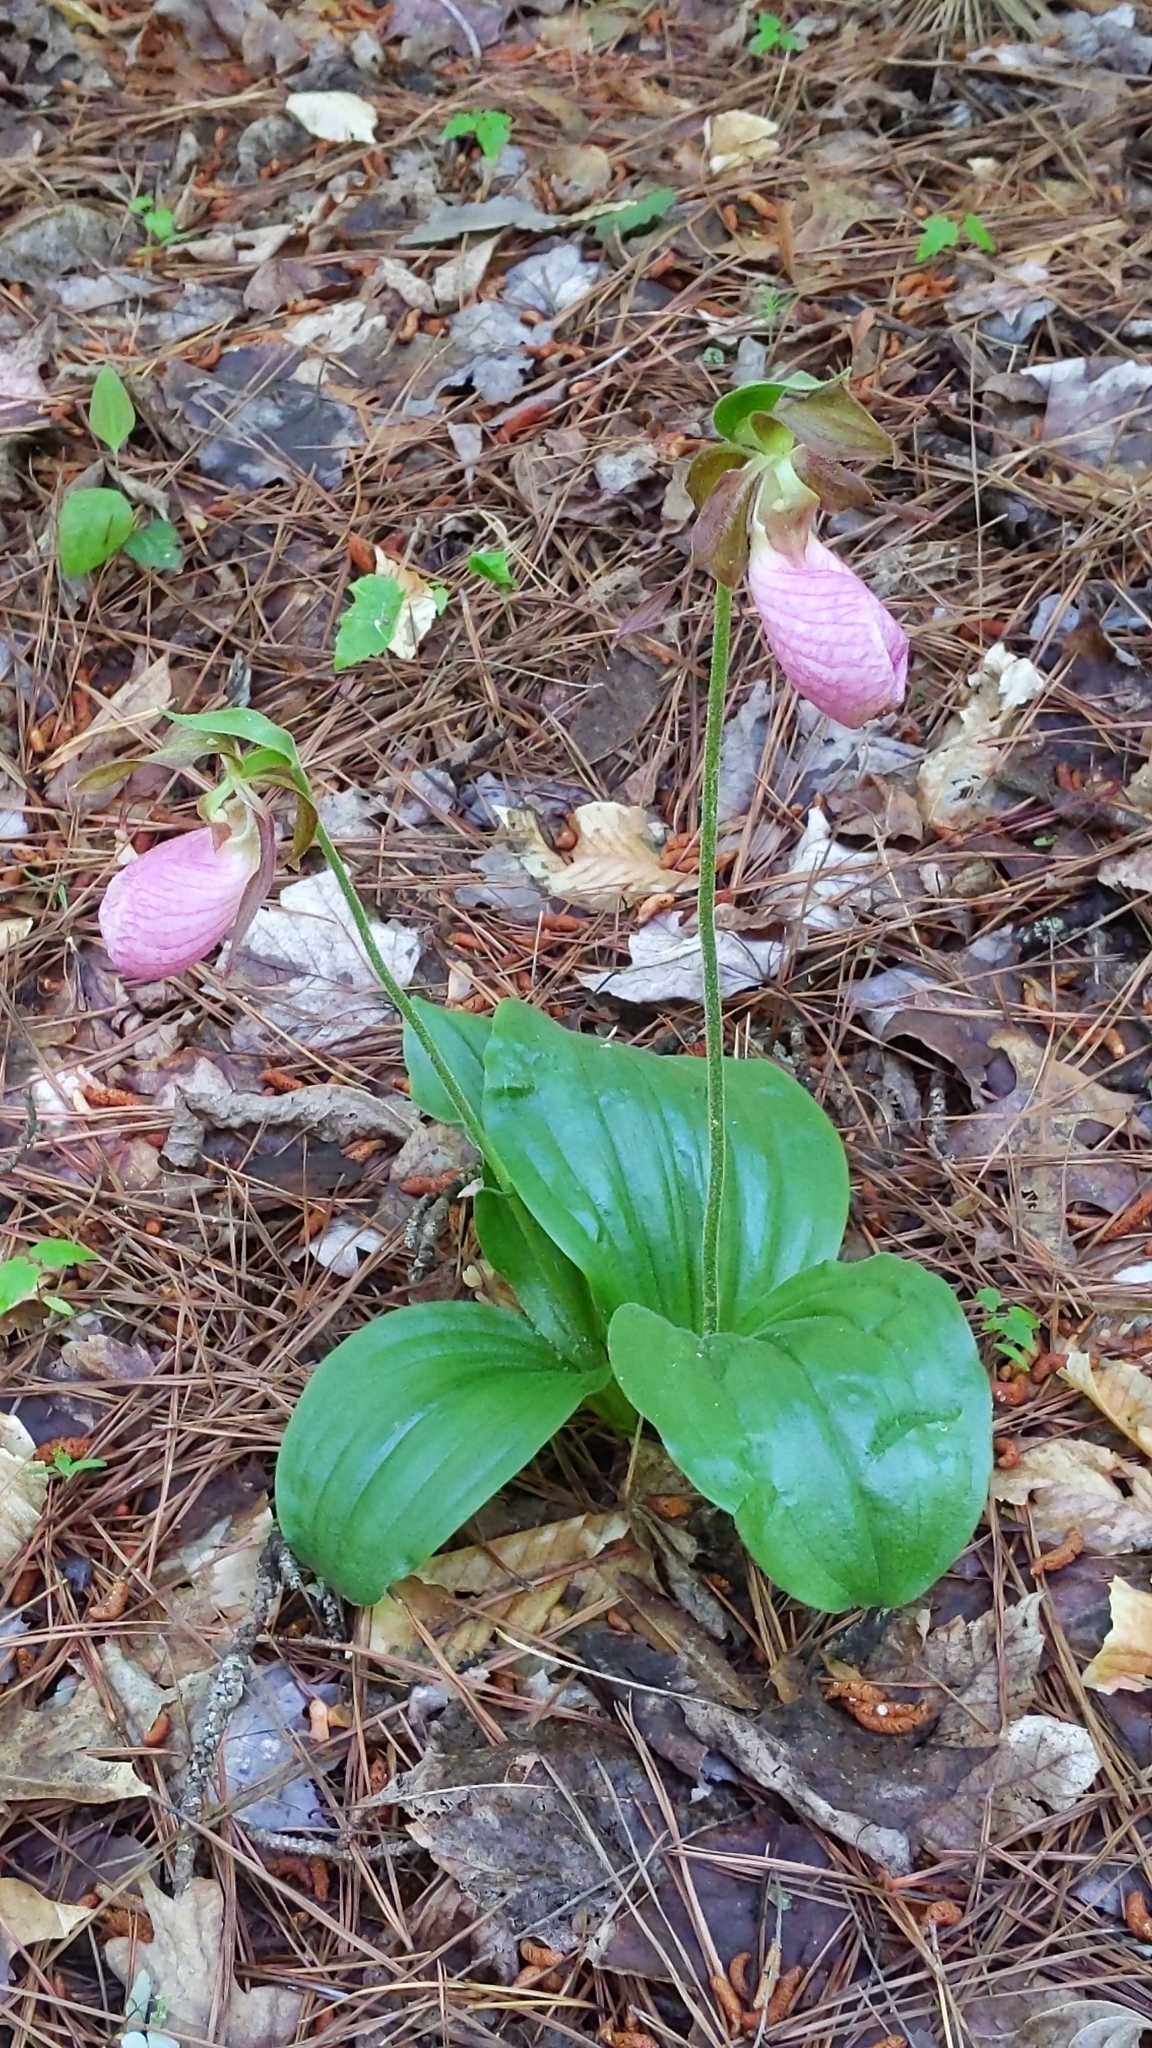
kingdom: Plantae
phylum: Tracheophyta
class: Liliopsida
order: Asparagales
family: Orchidaceae
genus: Cypripedium
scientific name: Cypripedium acaule
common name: Pink lady's-slipper
